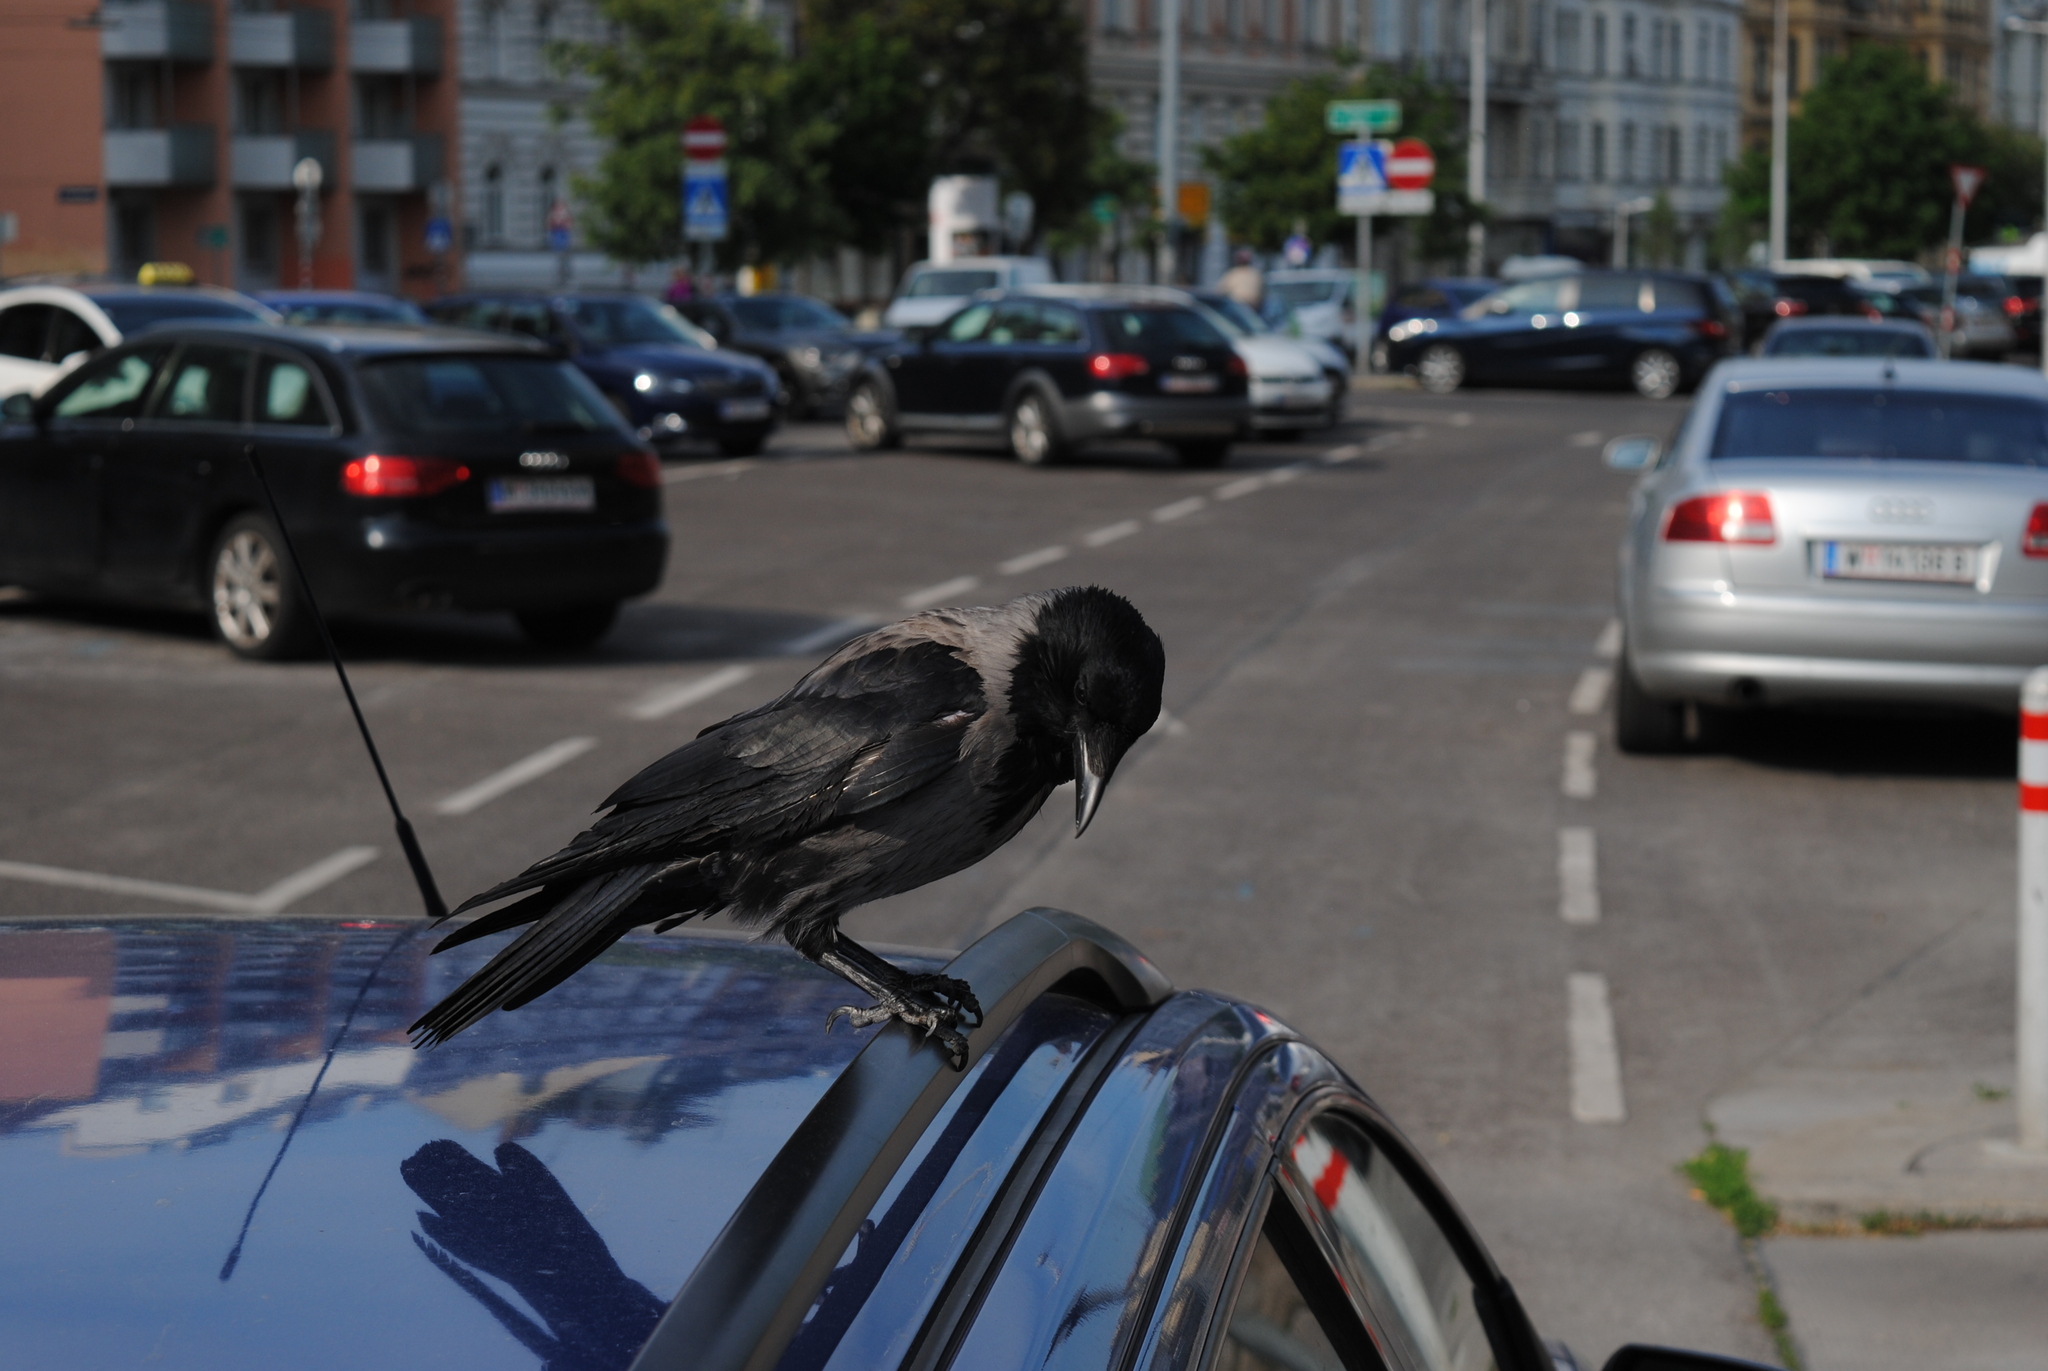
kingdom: Animalia
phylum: Chordata
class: Aves
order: Passeriformes
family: Corvidae
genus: Corvus
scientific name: Corvus
